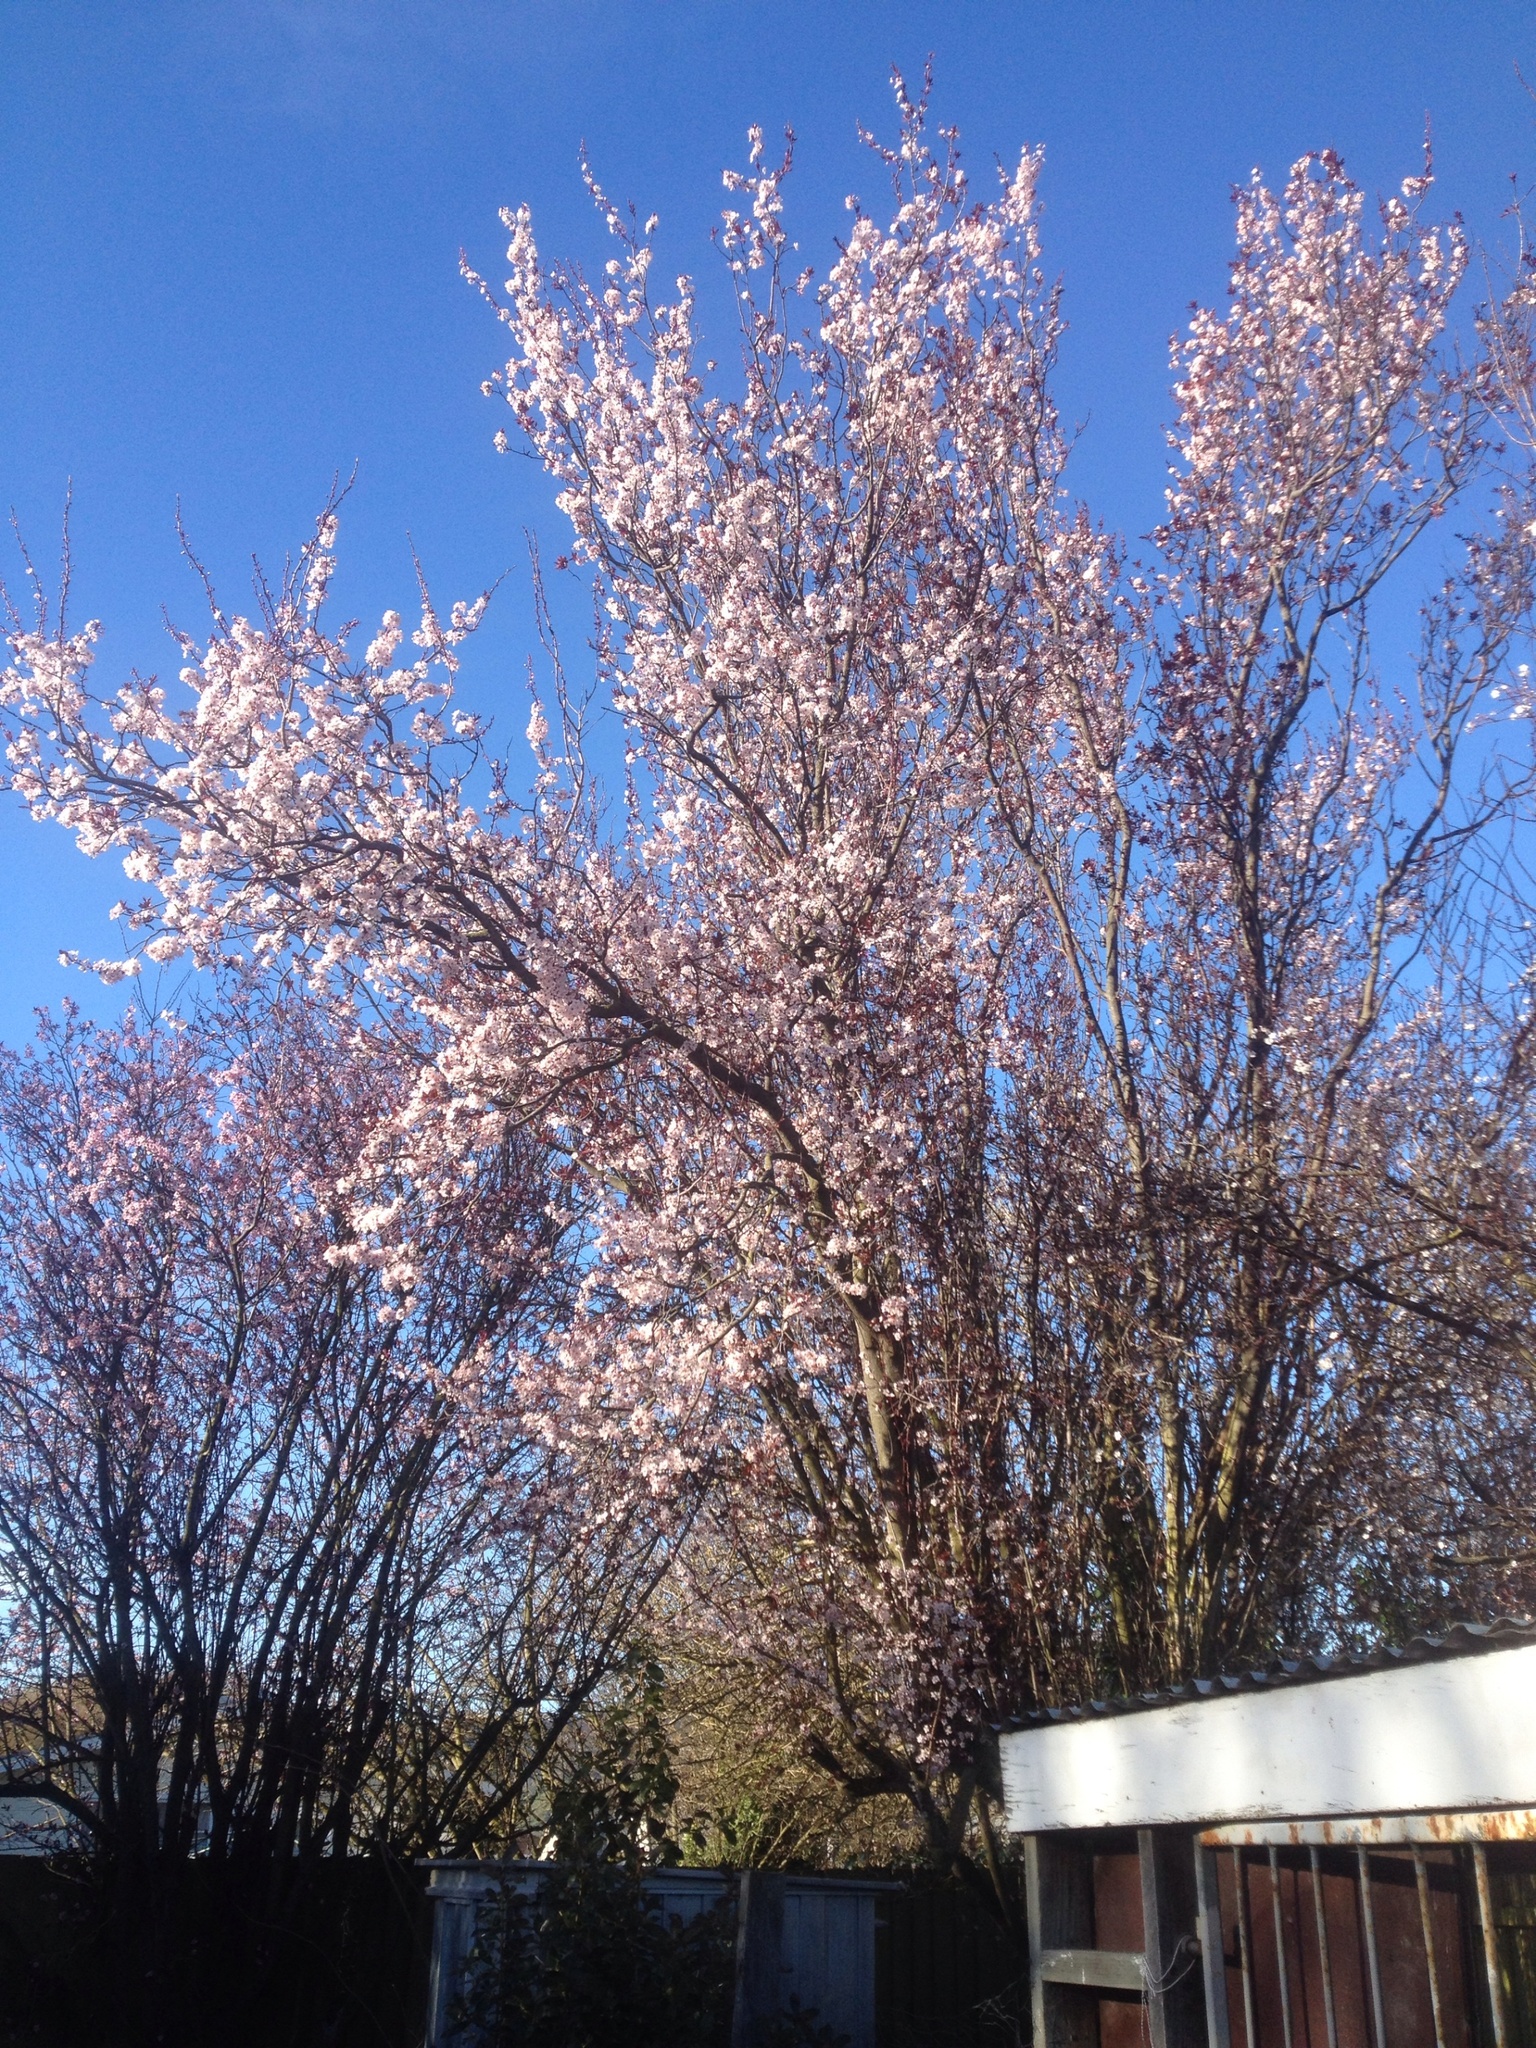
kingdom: Plantae
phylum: Tracheophyta
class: Magnoliopsida
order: Rosales
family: Rosaceae
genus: Prunus
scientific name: Prunus serrulata
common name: Japanese cherry
